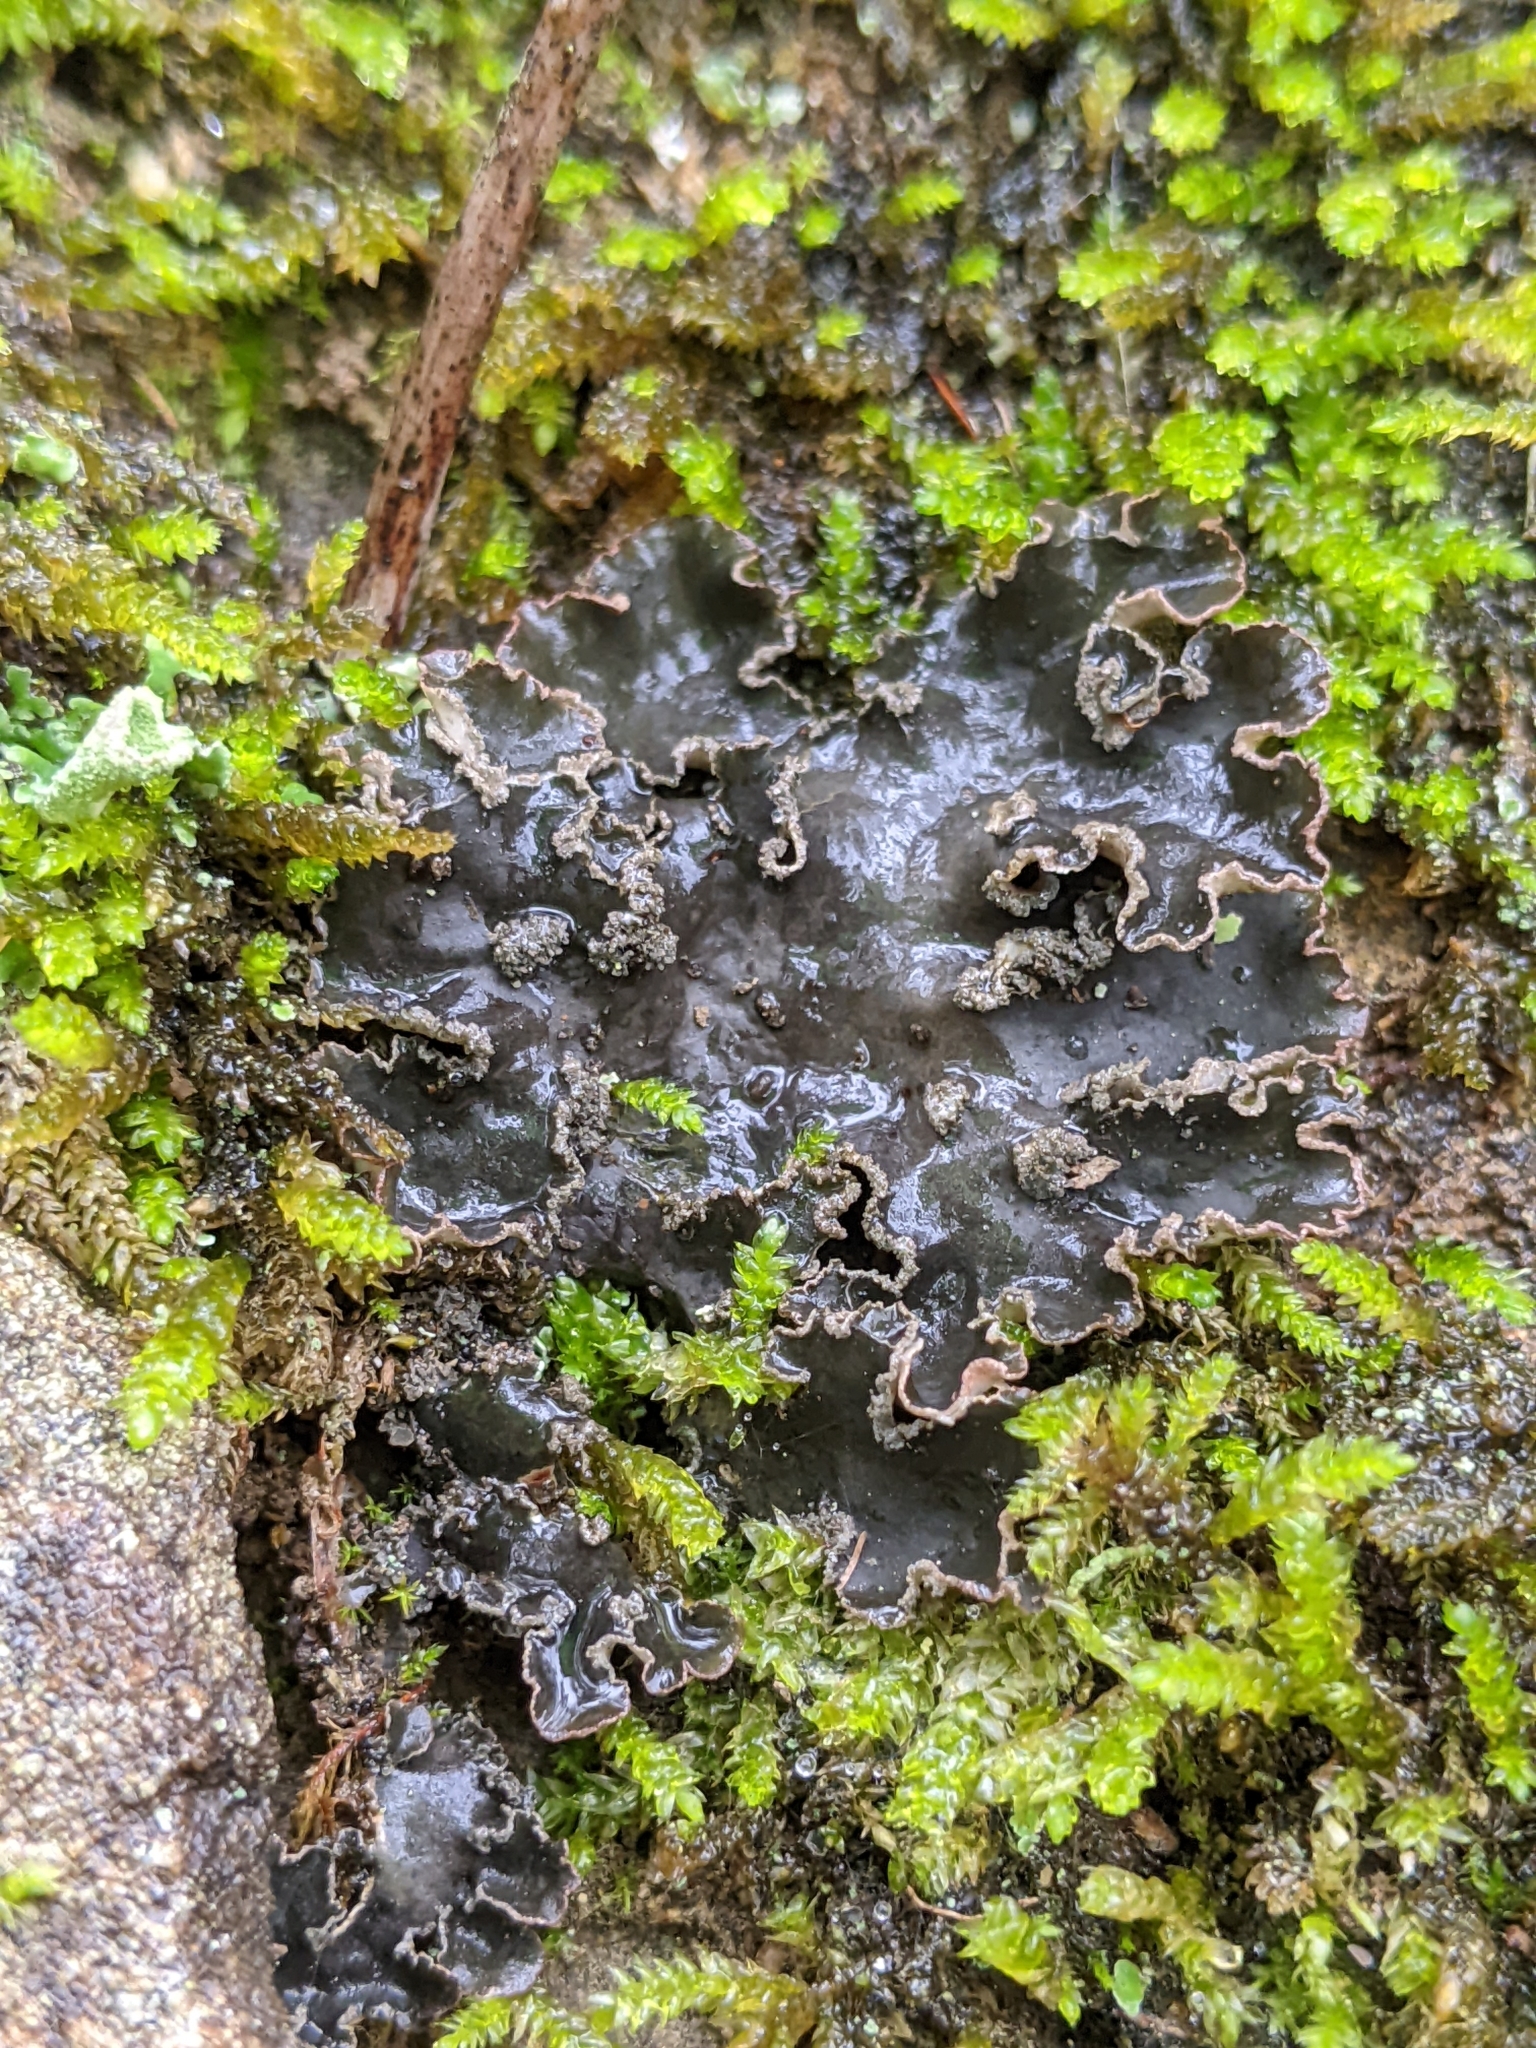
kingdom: Fungi
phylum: Ascomycota
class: Lecanoromycetes
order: Peltigerales
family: Peltigeraceae
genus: Peltigera
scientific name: Peltigera collina
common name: Gritty tree pelt lichen
